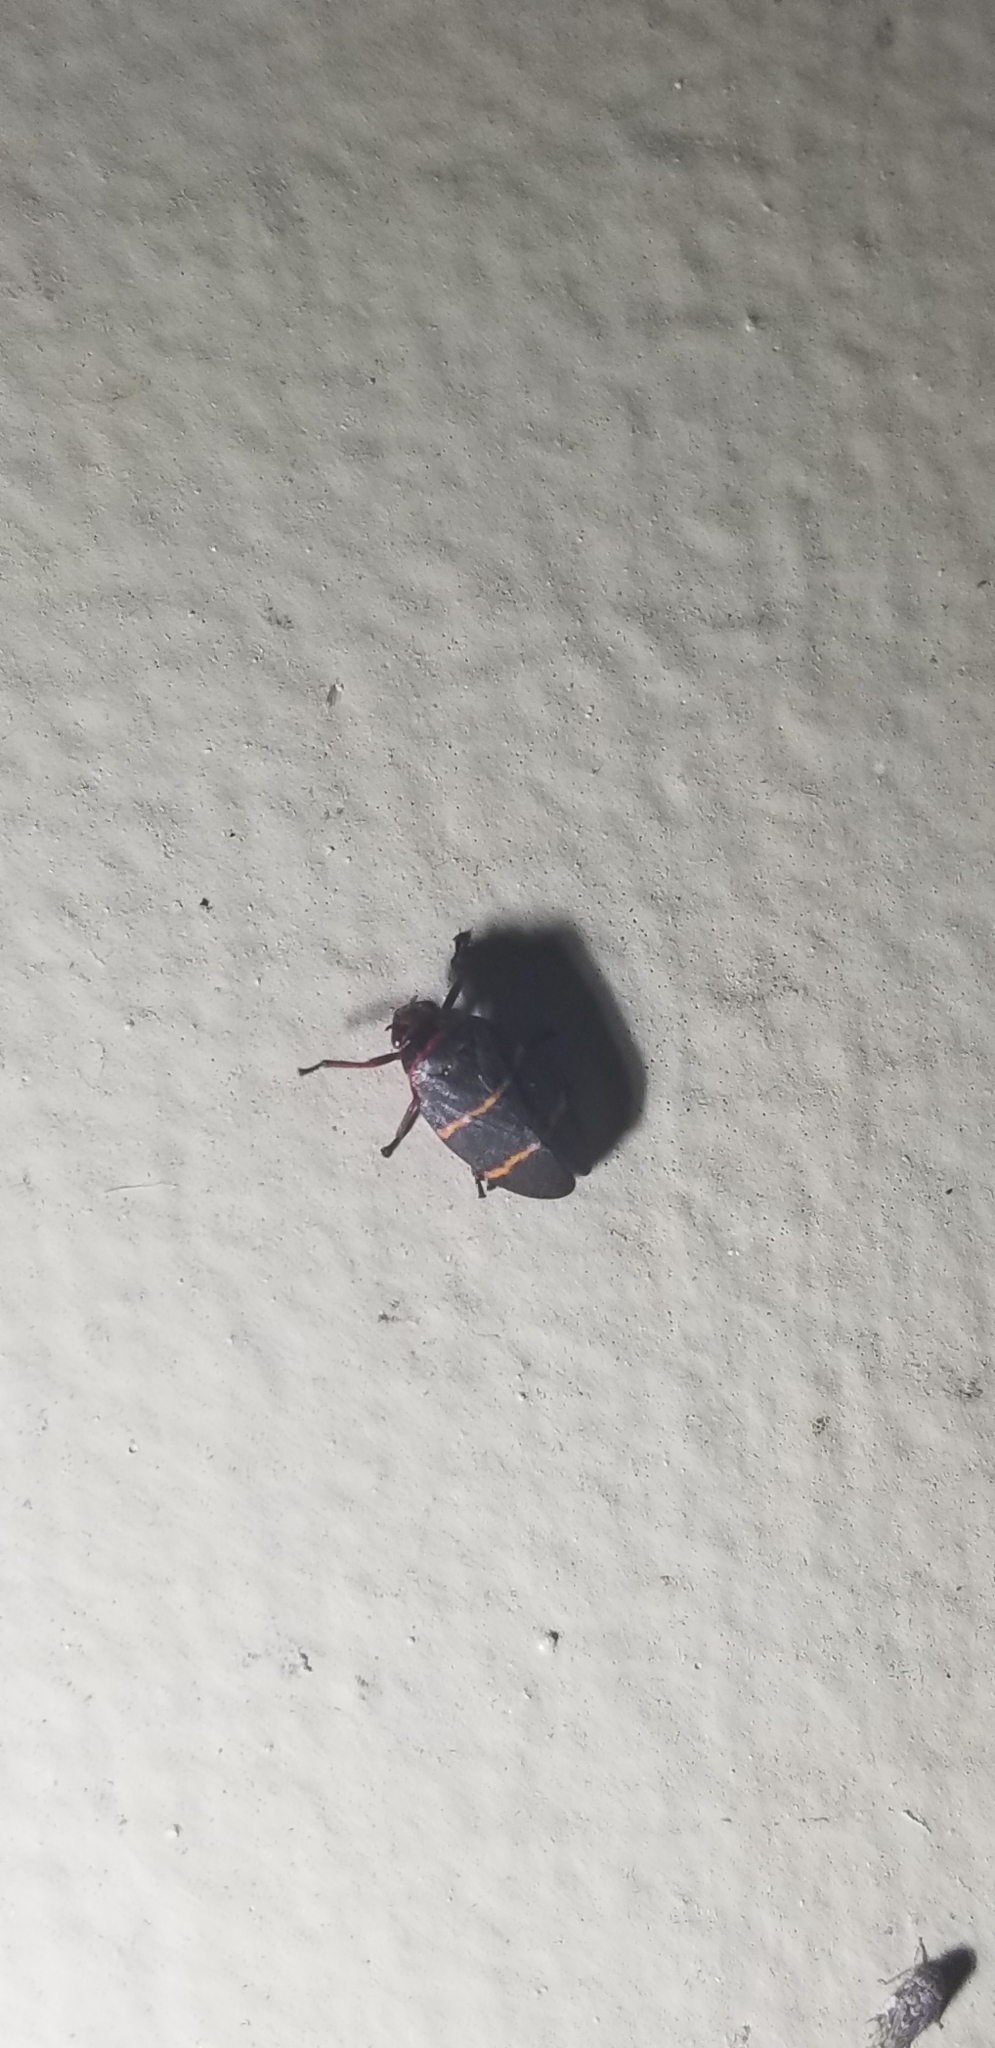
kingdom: Animalia
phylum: Arthropoda
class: Insecta
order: Hemiptera
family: Cercopidae
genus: Prosapia
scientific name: Prosapia bicincta
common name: Twolined spittlebug
